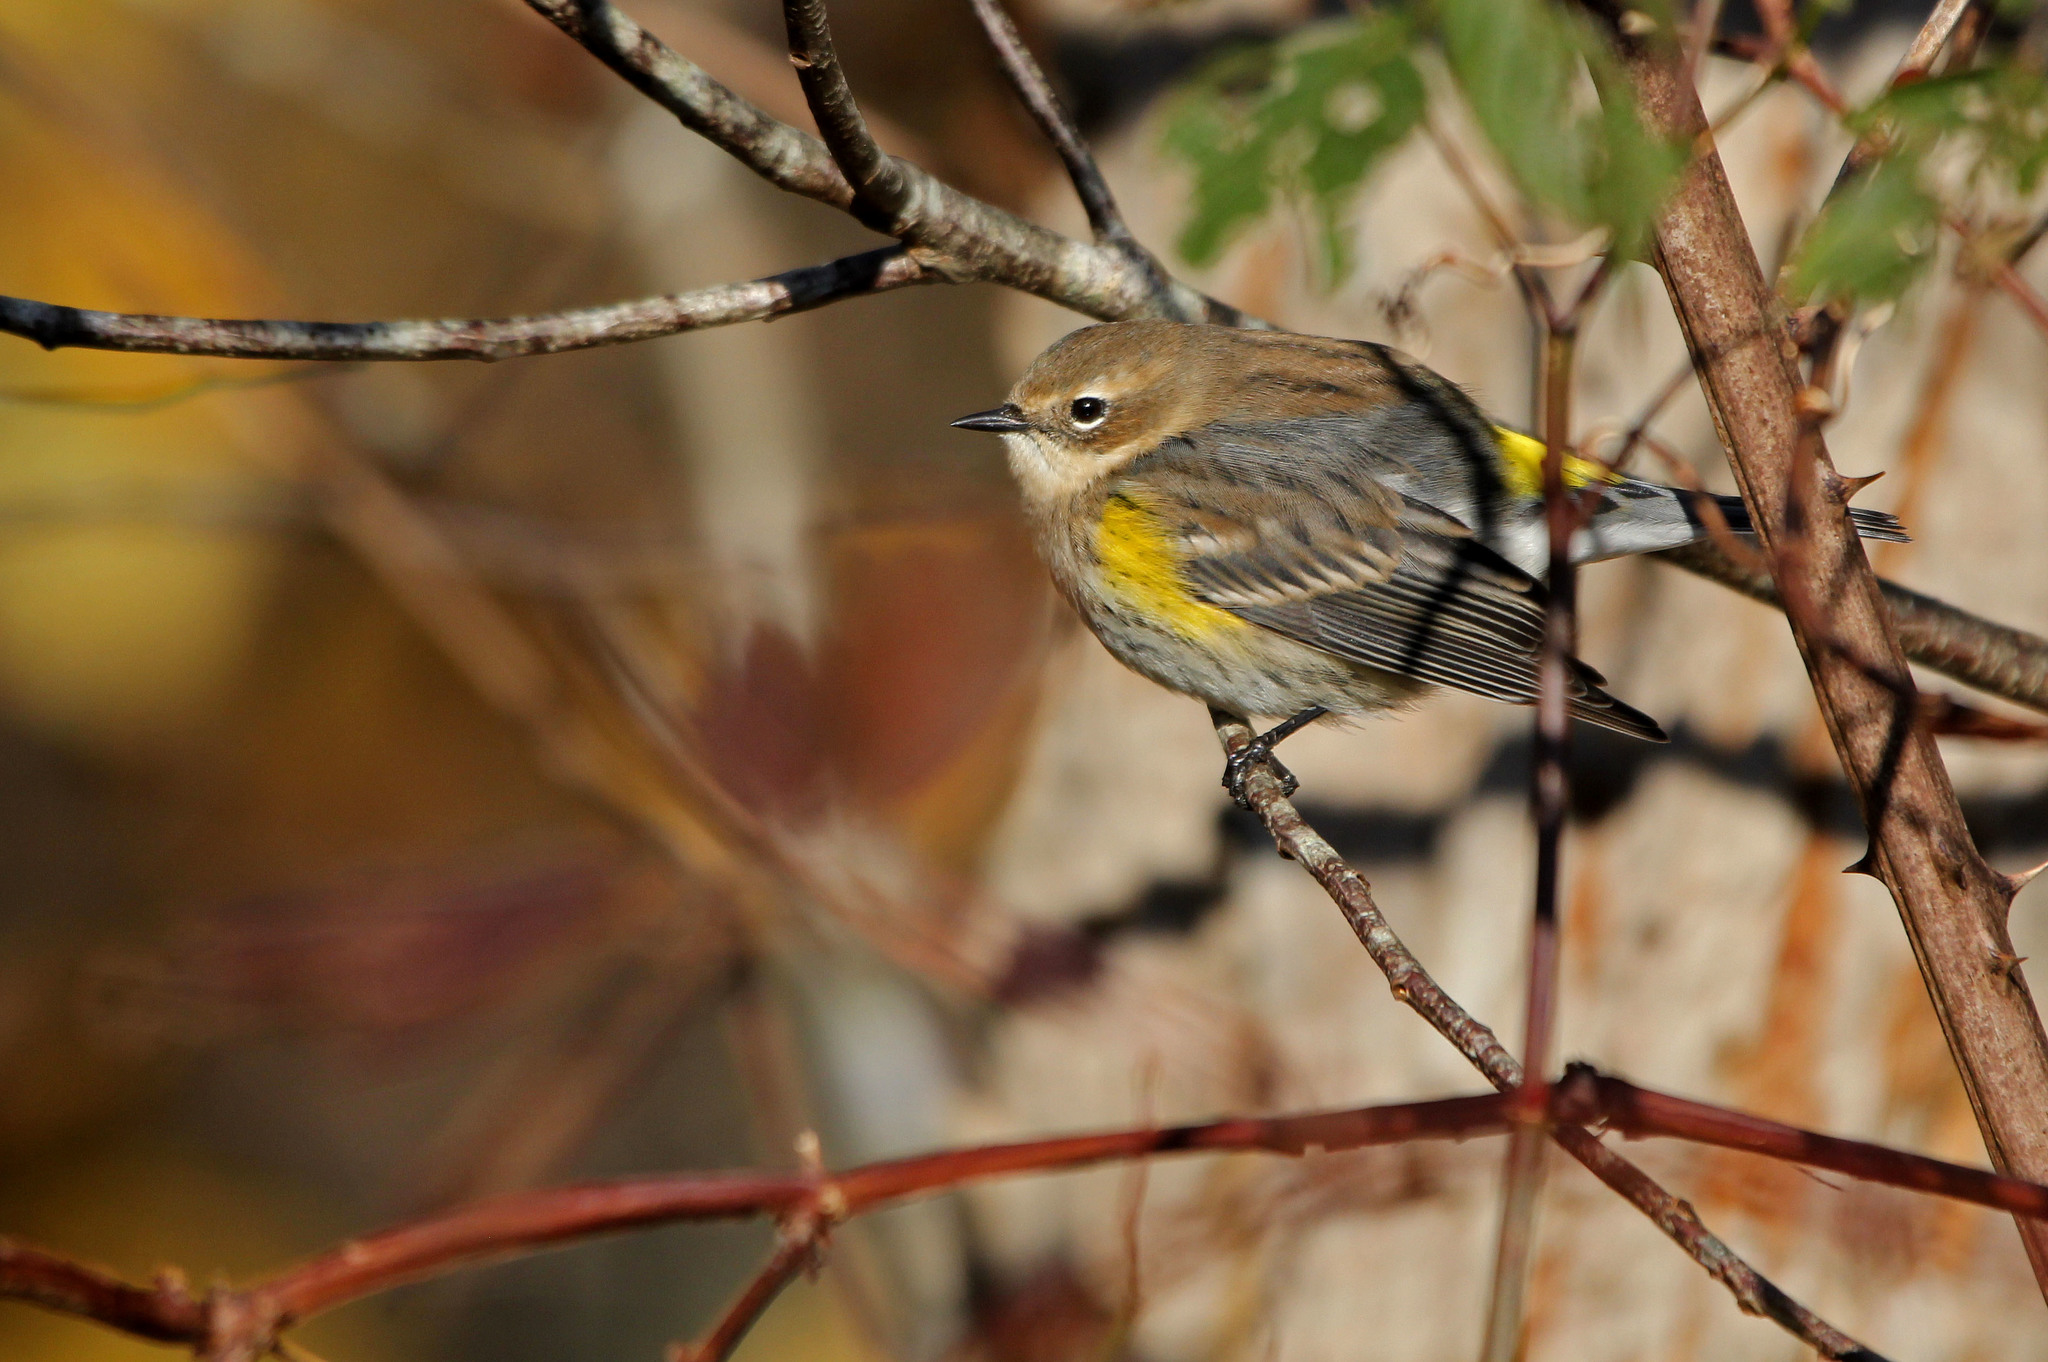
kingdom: Animalia
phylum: Chordata
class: Aves
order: Passeriformes
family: Parulidae
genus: Setophaga
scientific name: Setophaga coronata
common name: Myrtle warbler
